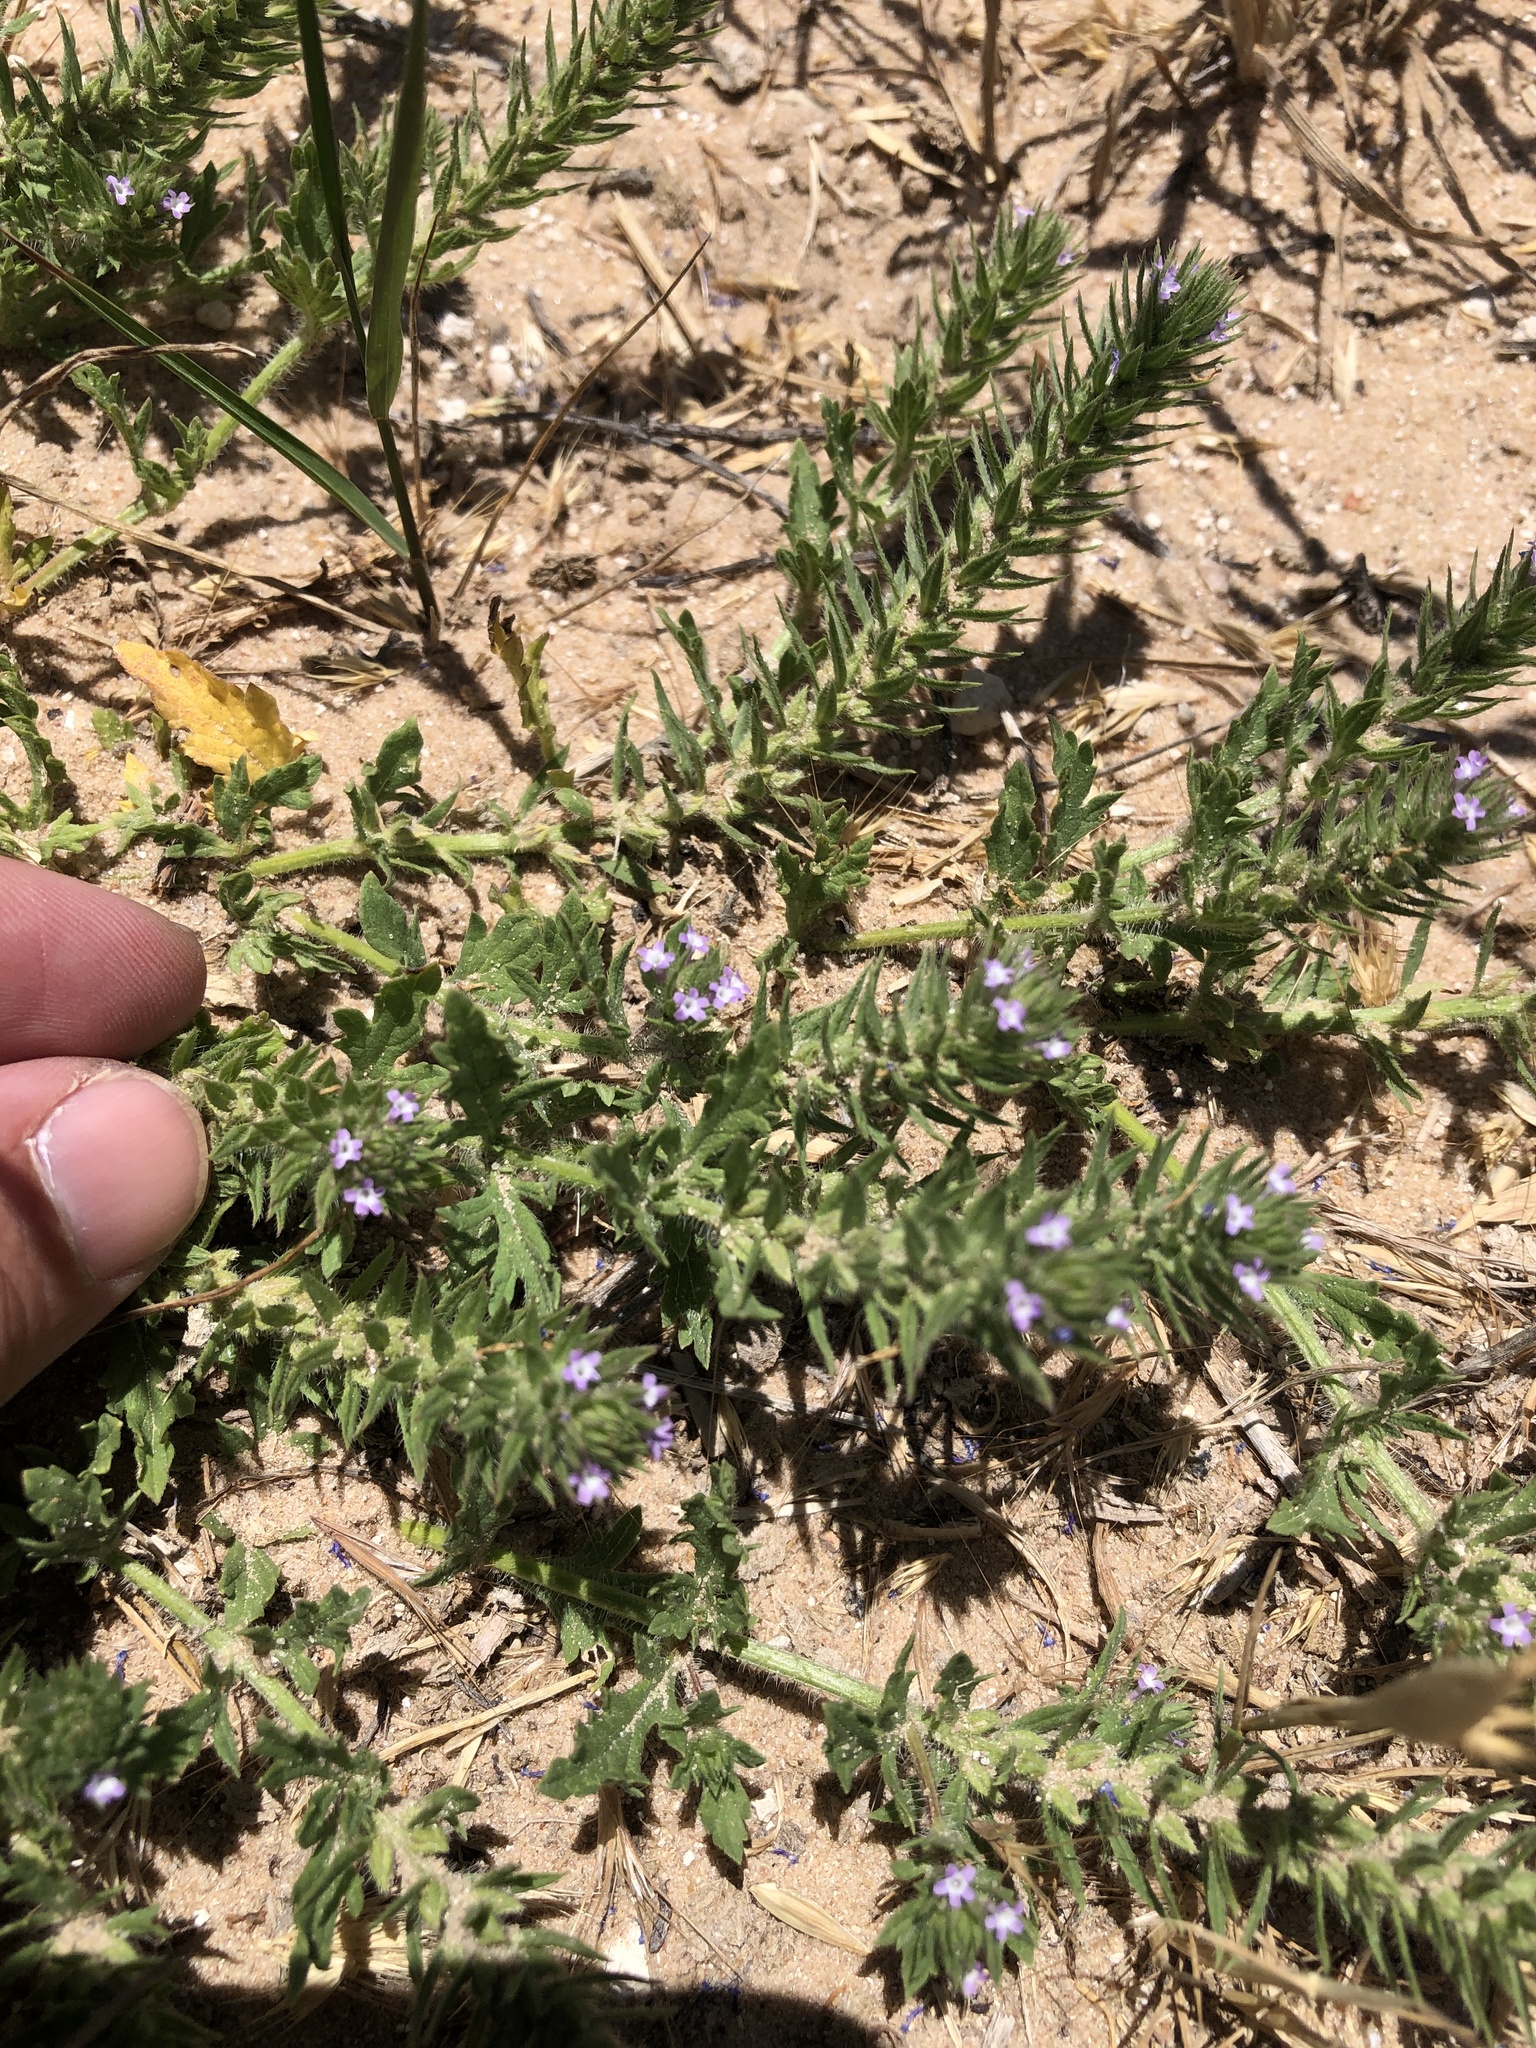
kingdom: Plantae
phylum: Tracheophyta
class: Magnoliopsida
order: Lamiales
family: Verbenaceae
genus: Verbena
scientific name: Verbena bracteata
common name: Bracted vervain
